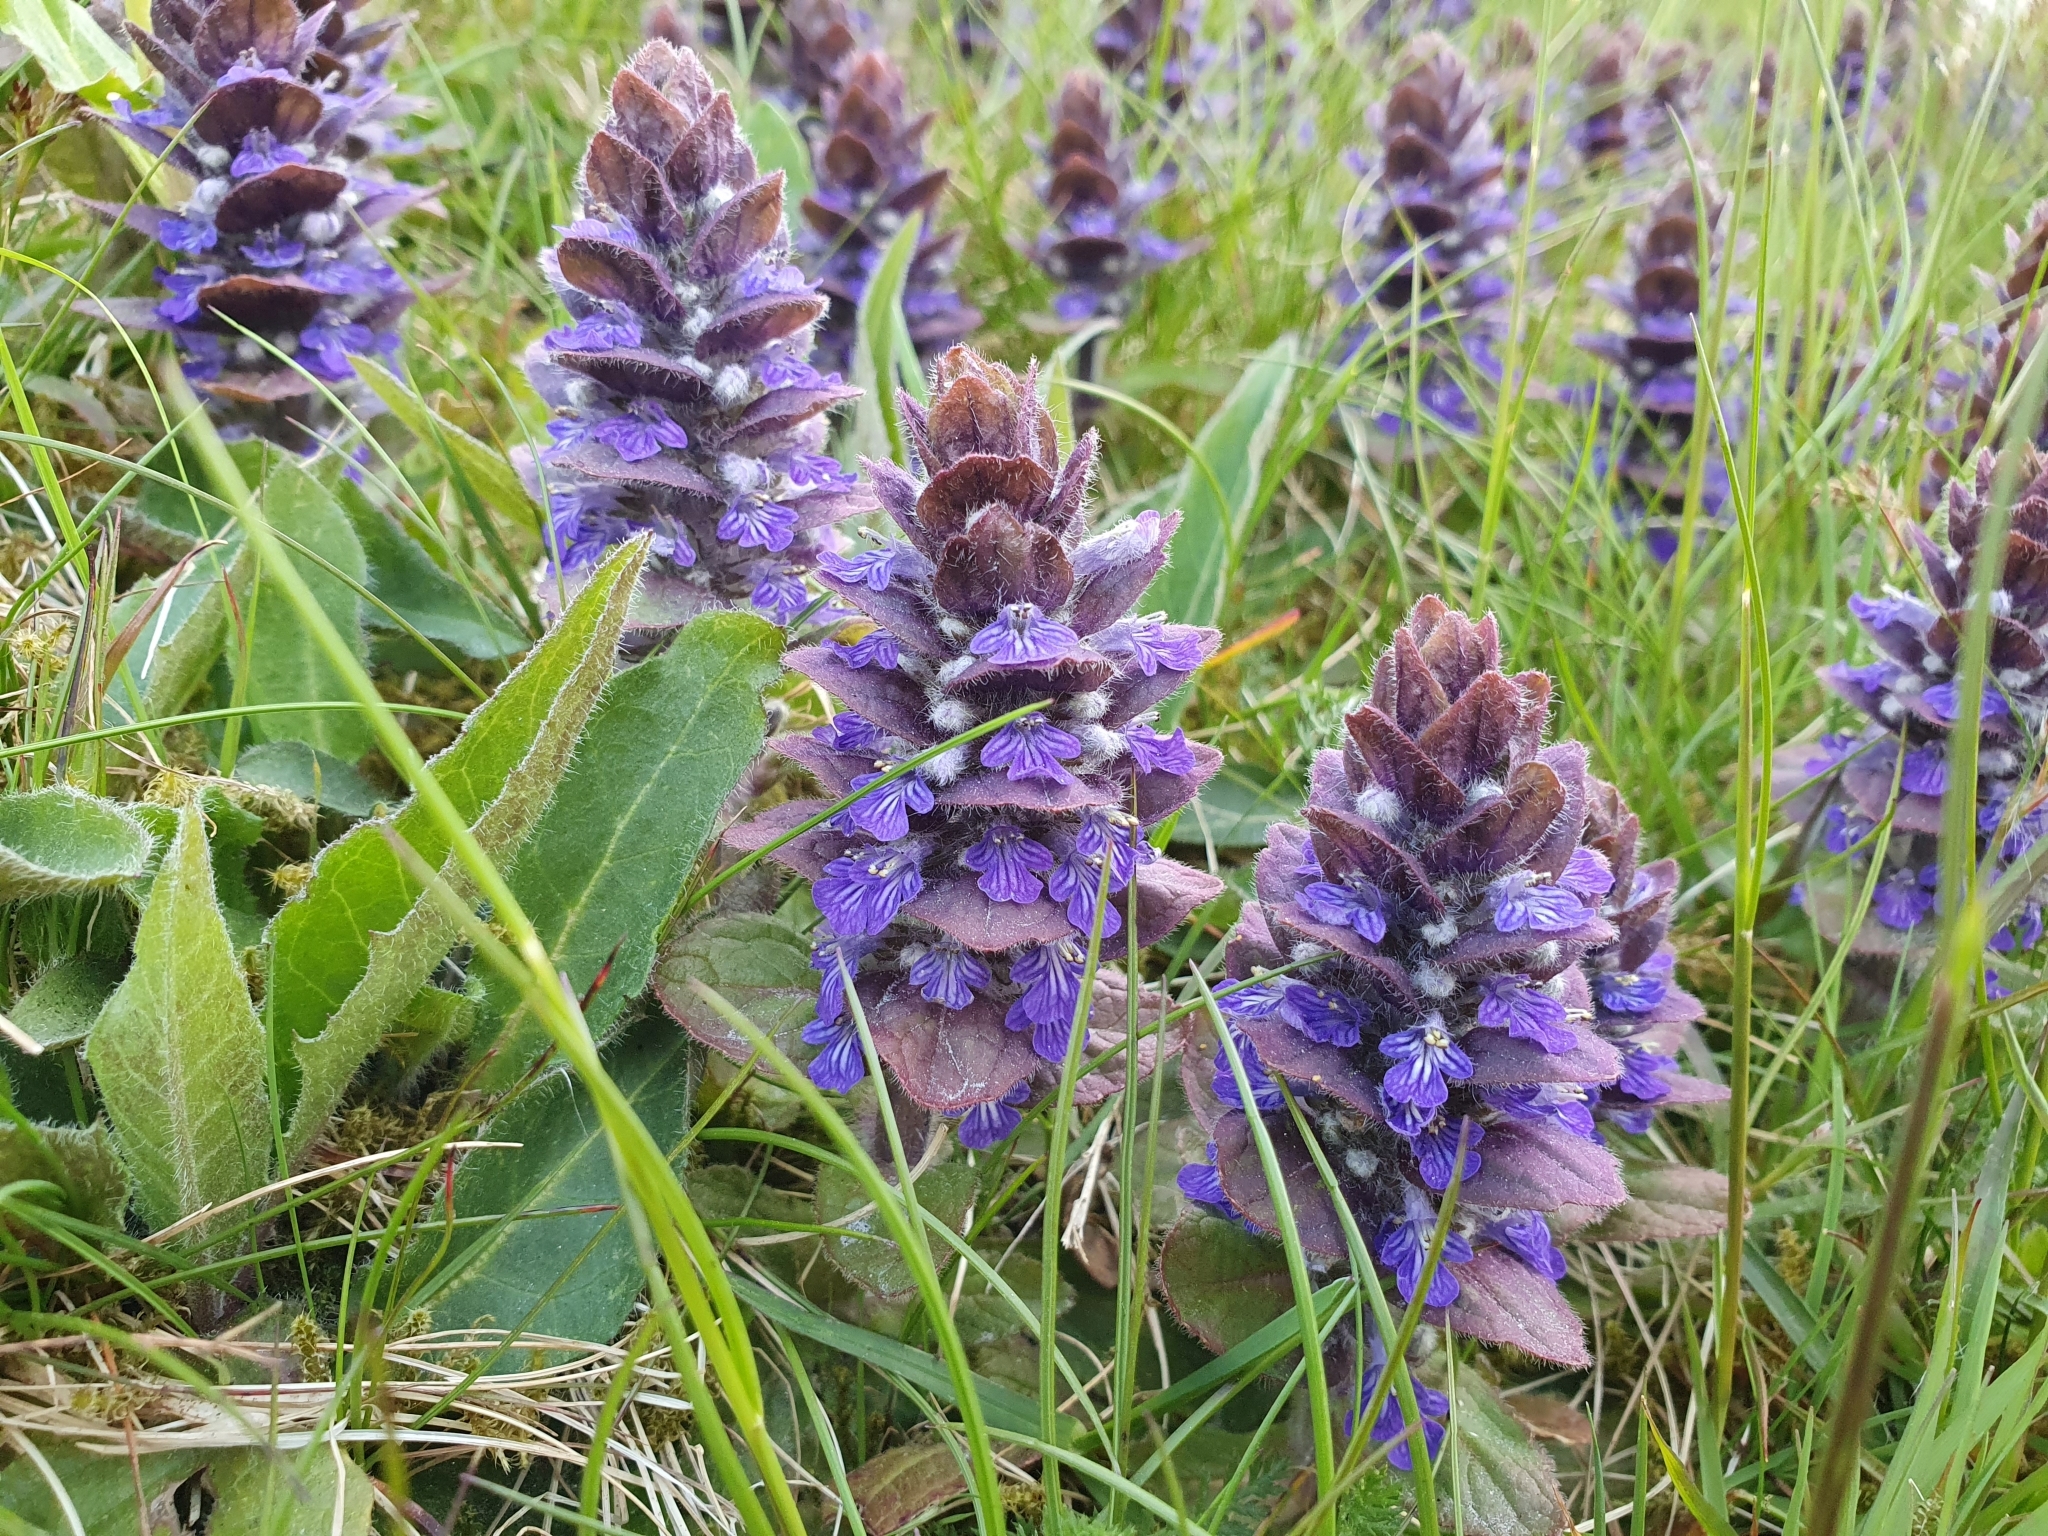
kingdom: Plantae
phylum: Tracheophyta
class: Magnoliopsida
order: Lamiales
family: Lamiaceae
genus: Ajuga
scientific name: Ajuga pyramidalis
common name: Pyramid bugle
